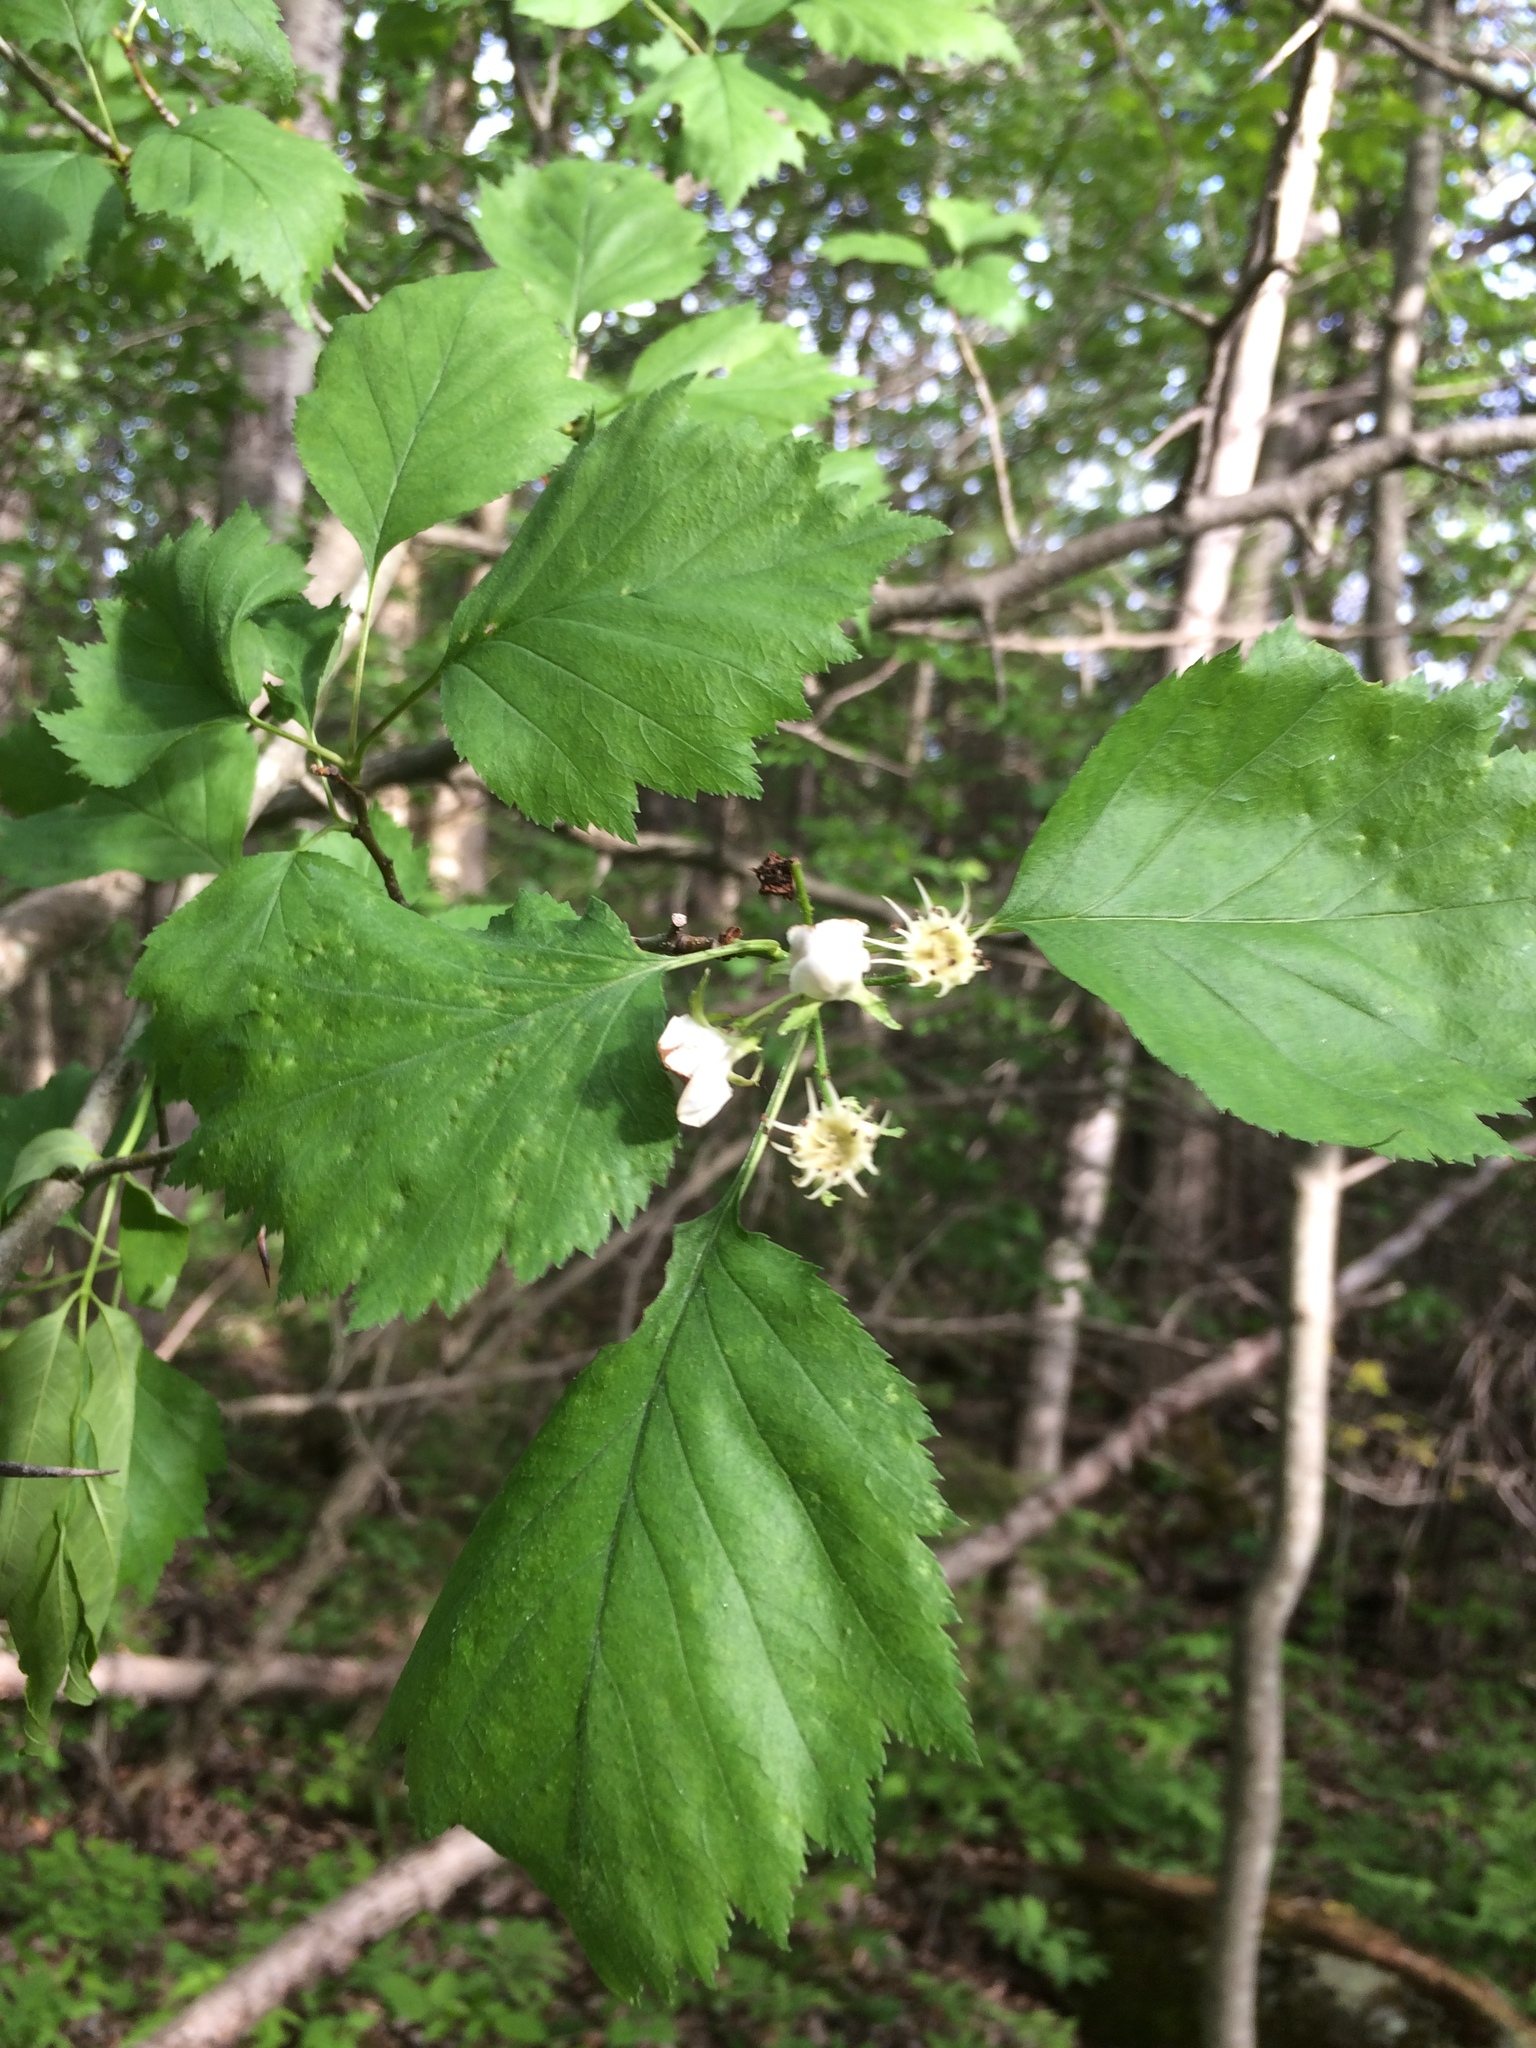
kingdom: Plantae
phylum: Tracheophyta
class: Magnoliopsida
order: Rosales
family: Rosaceae
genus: Crataegus
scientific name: Crataegus schuettei
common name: Schuette's hawthorn
